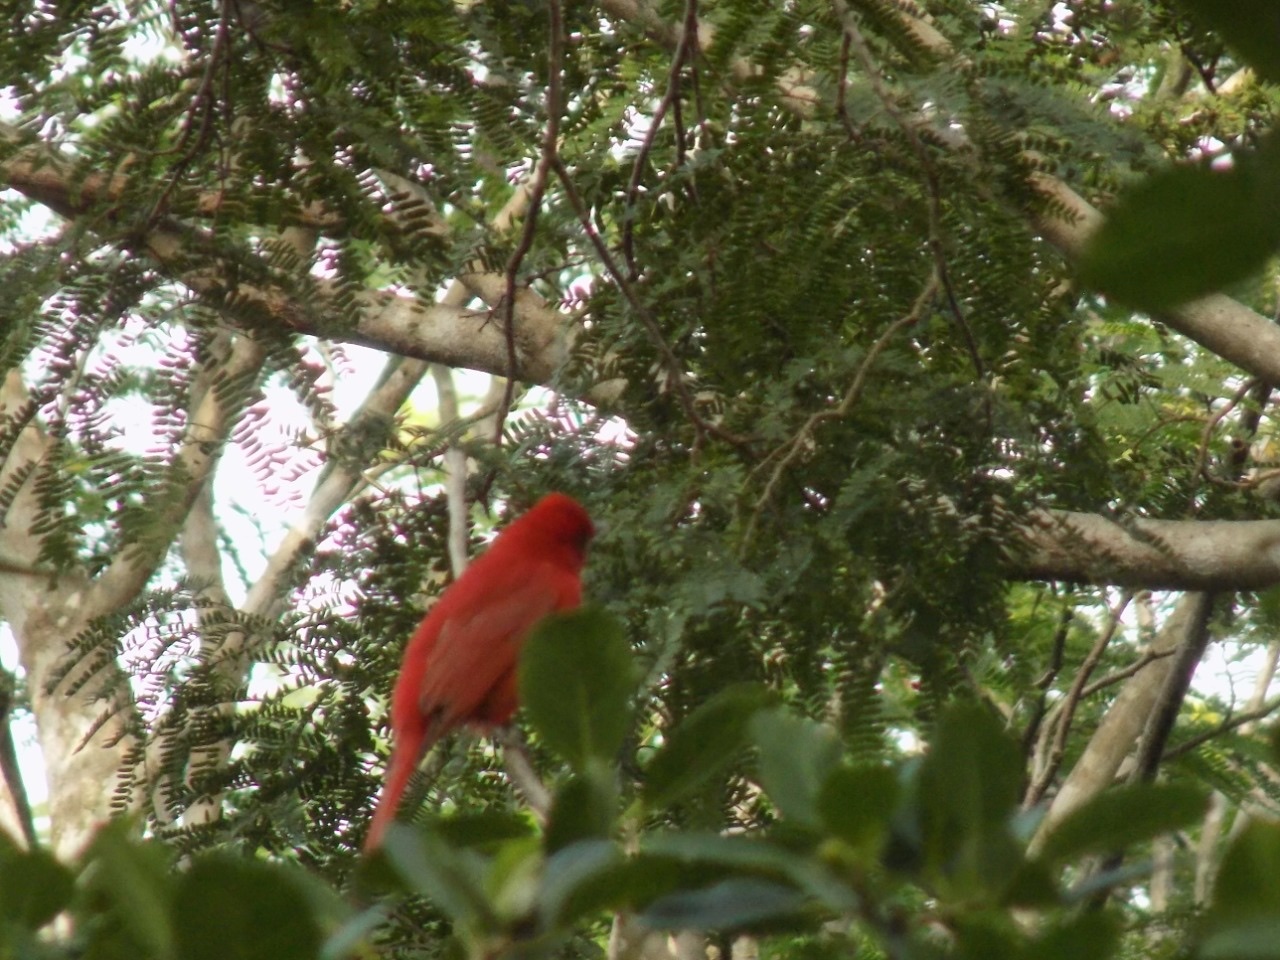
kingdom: Animalia
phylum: Chordata
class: Aves
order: Passeriformes
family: Cardinalidae
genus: Piranga
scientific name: Piranga rubra
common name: Summer tanager
